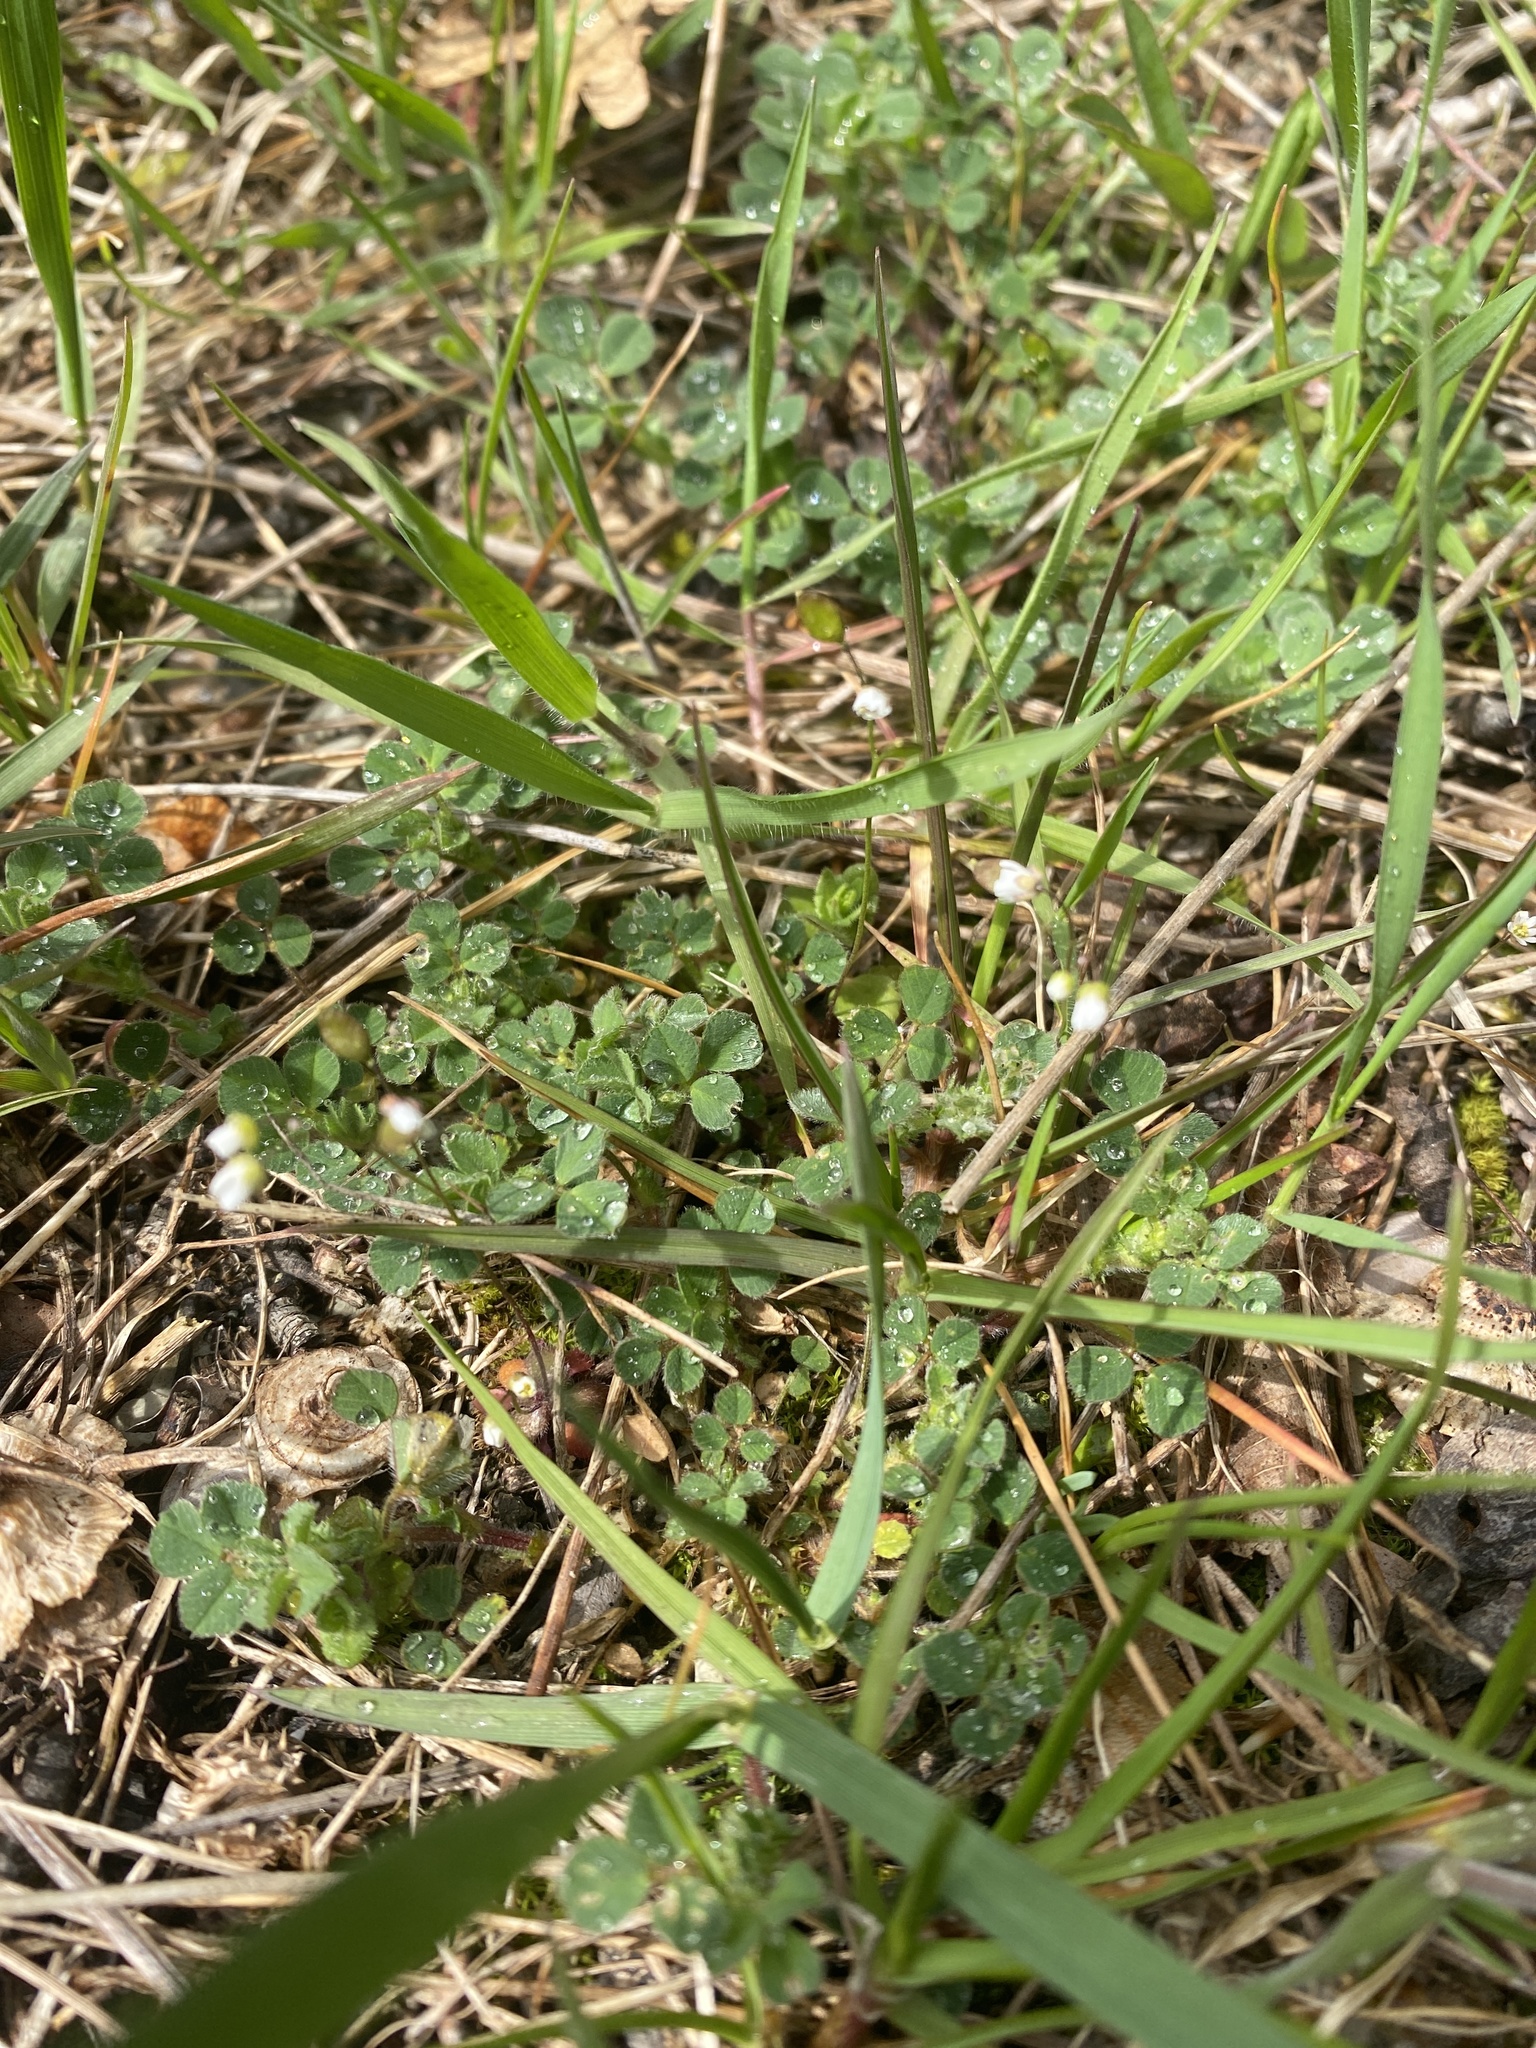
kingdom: Plantae
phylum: Tracheophyta
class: Magnoliopsida
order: Brassicales
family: Brassicaceae
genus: Draba
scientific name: Draba verna
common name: Spring draba
